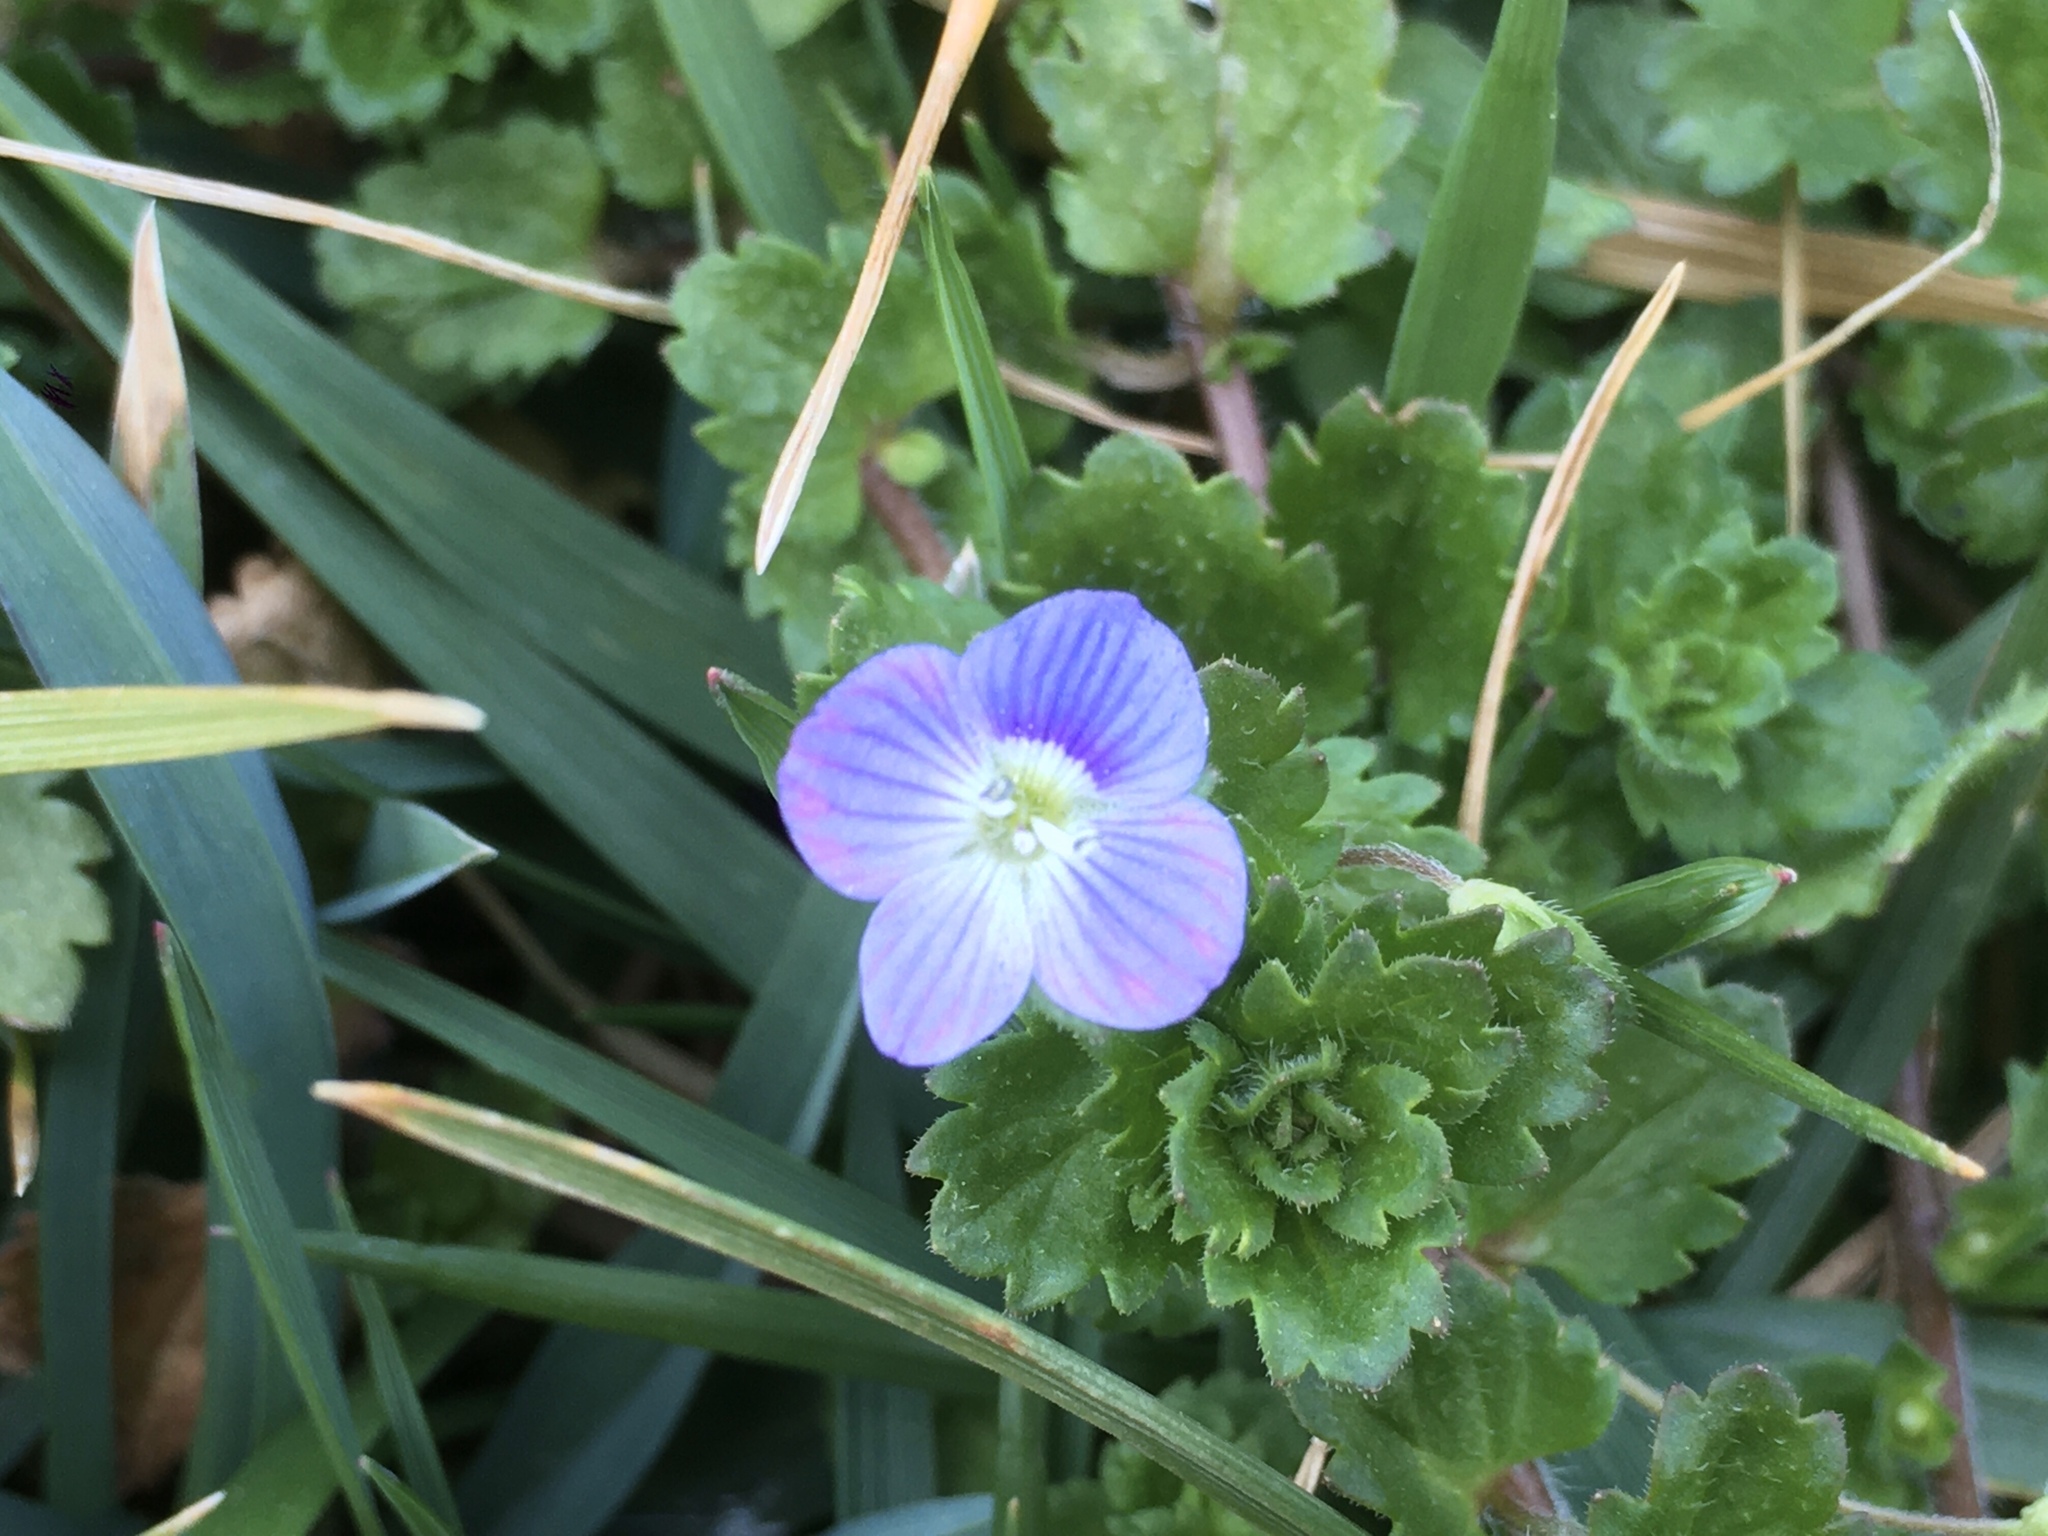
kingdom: Plantae
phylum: Tracheophyta
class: Magnoliopsida
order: Lamiales
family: Plantaginaceae
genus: Veronica
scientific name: Veronica persica
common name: Common field-speedwell
